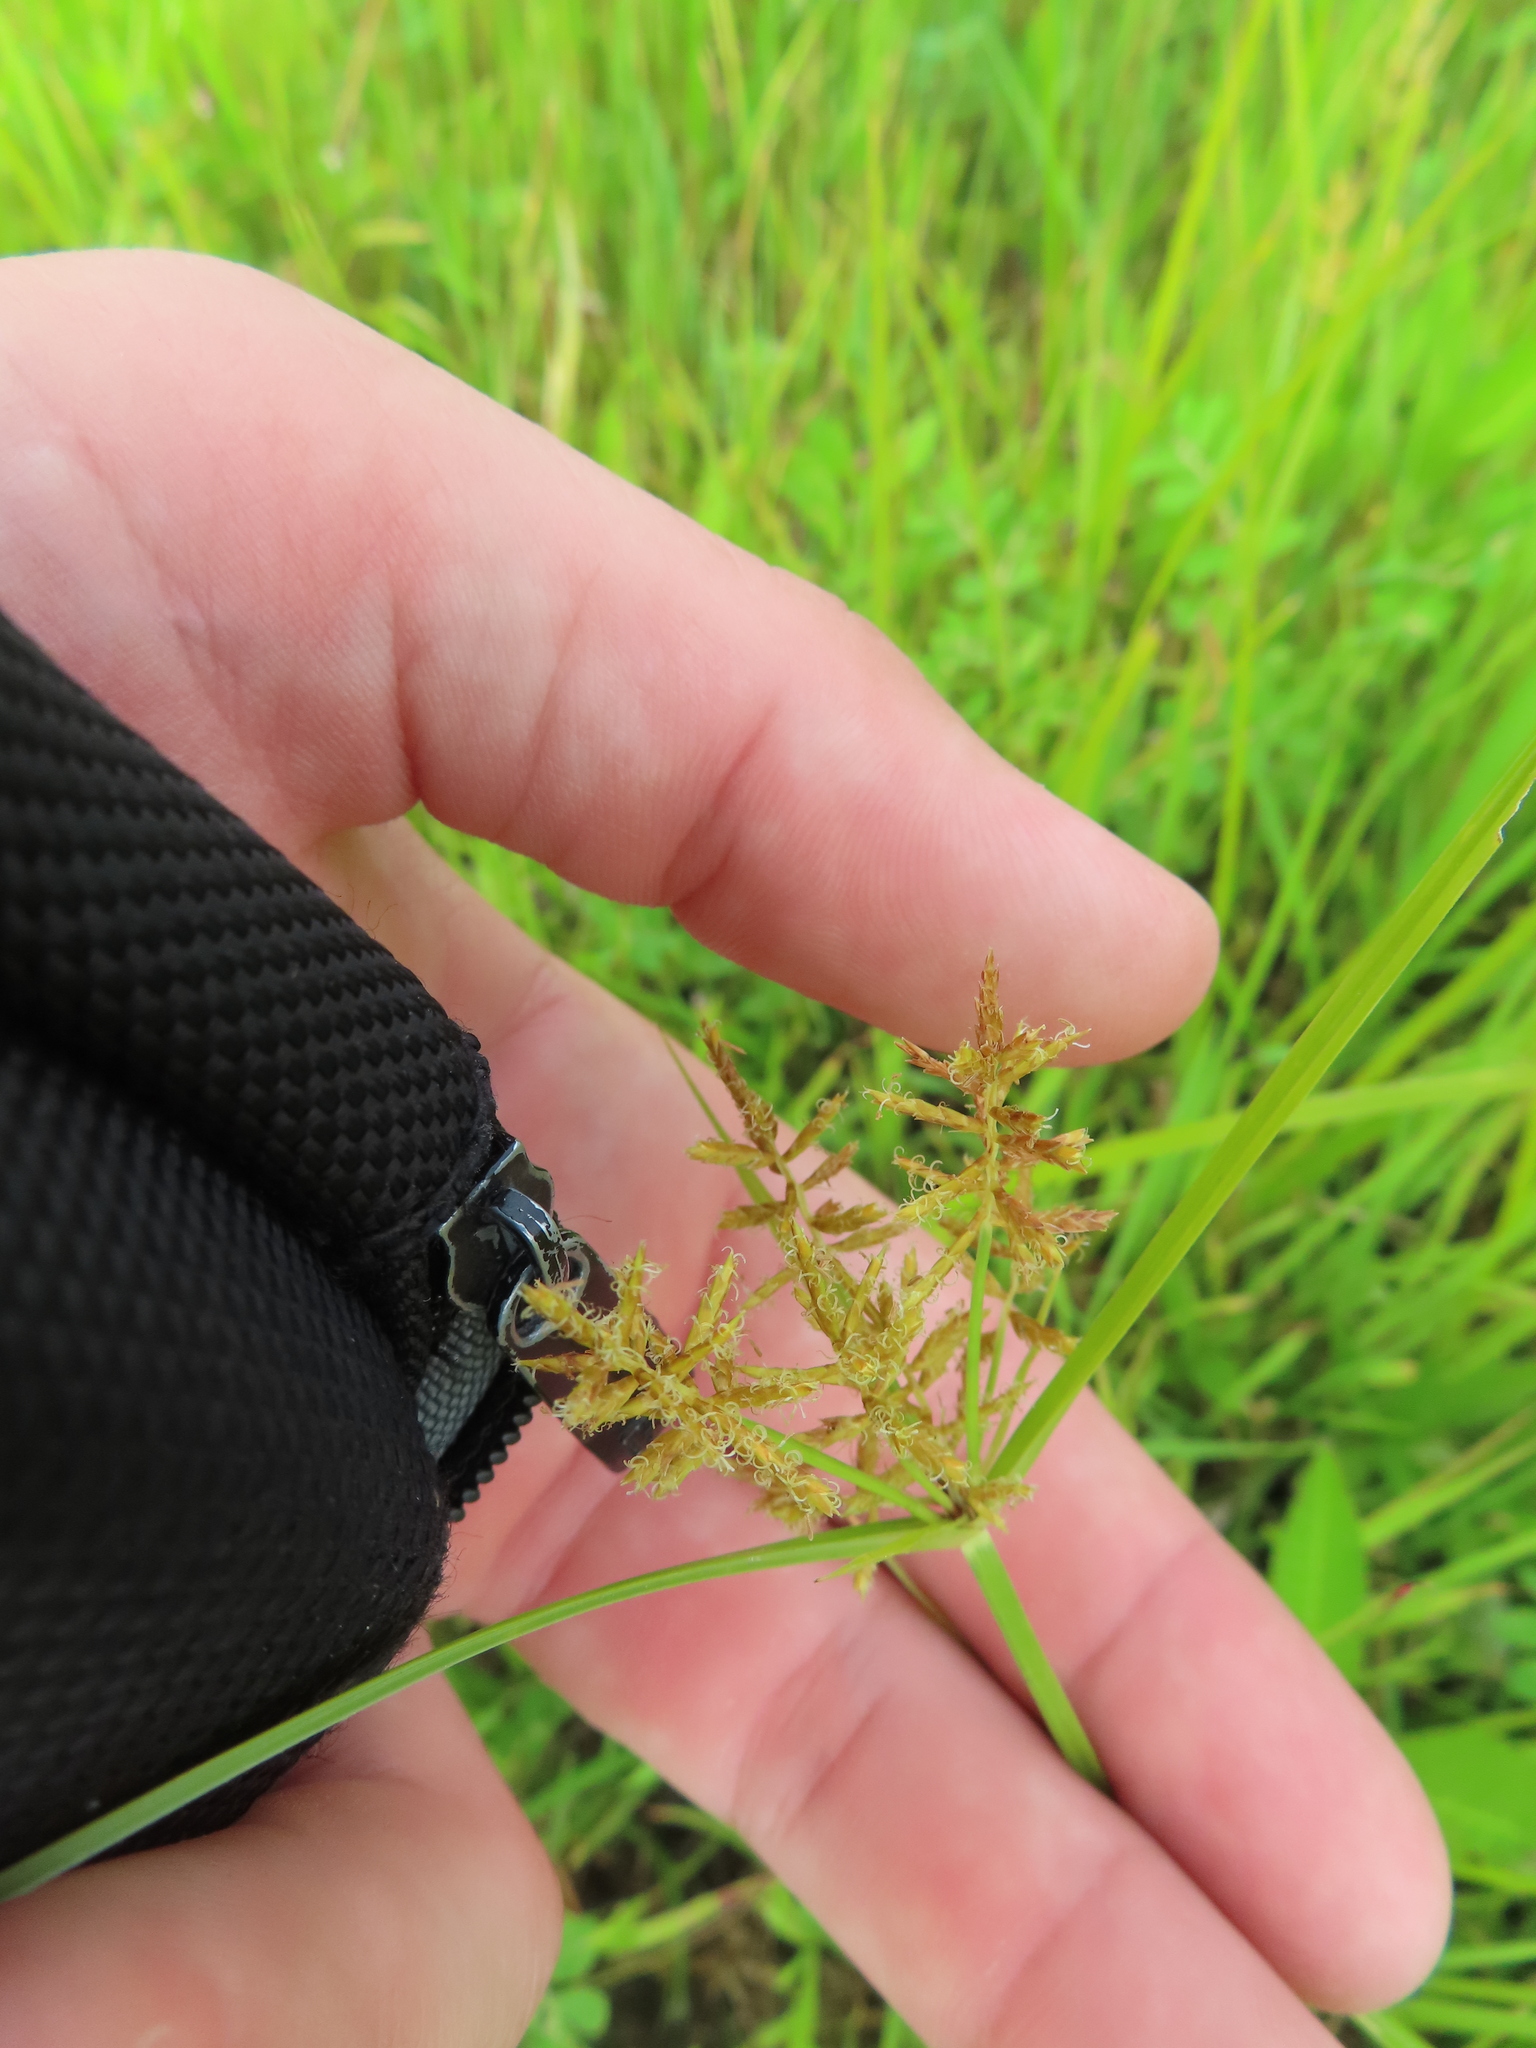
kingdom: Plantae
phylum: Tracheophyta
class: Liliopsida
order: Poales
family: Cyperaceae
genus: Cyperus
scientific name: Cyperus esculentus
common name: Yellow nutsedge
